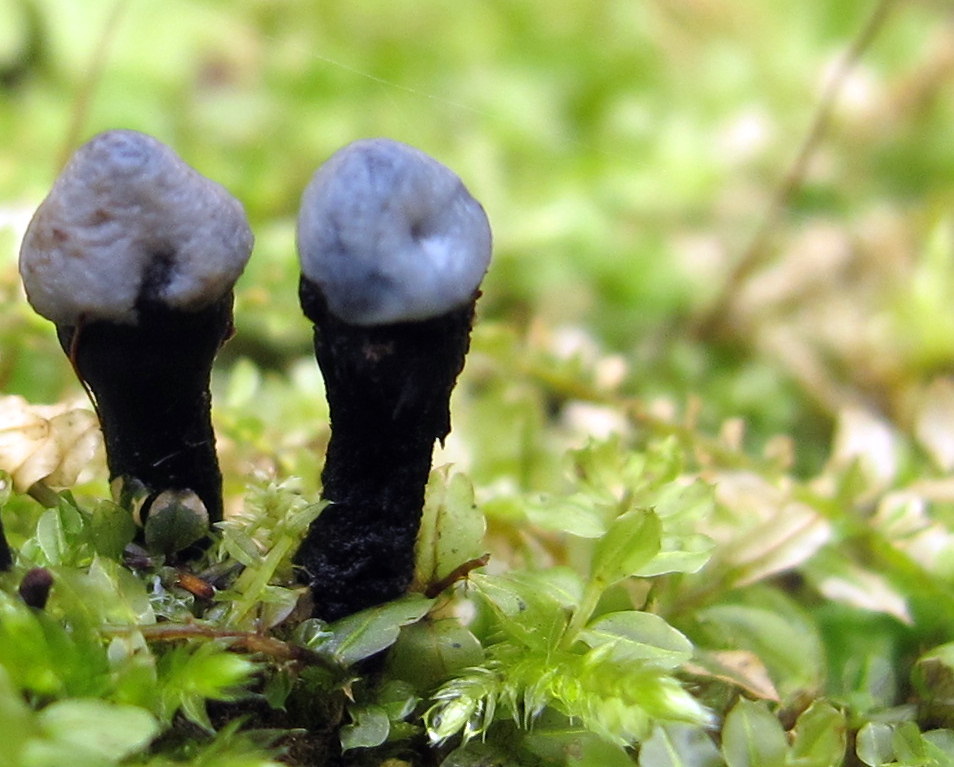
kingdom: Fungi
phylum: Ascomycota
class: Leotiomycetes
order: Helotiales
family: Bulgariaceae
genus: Holwaya
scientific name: Holwaya mucida
